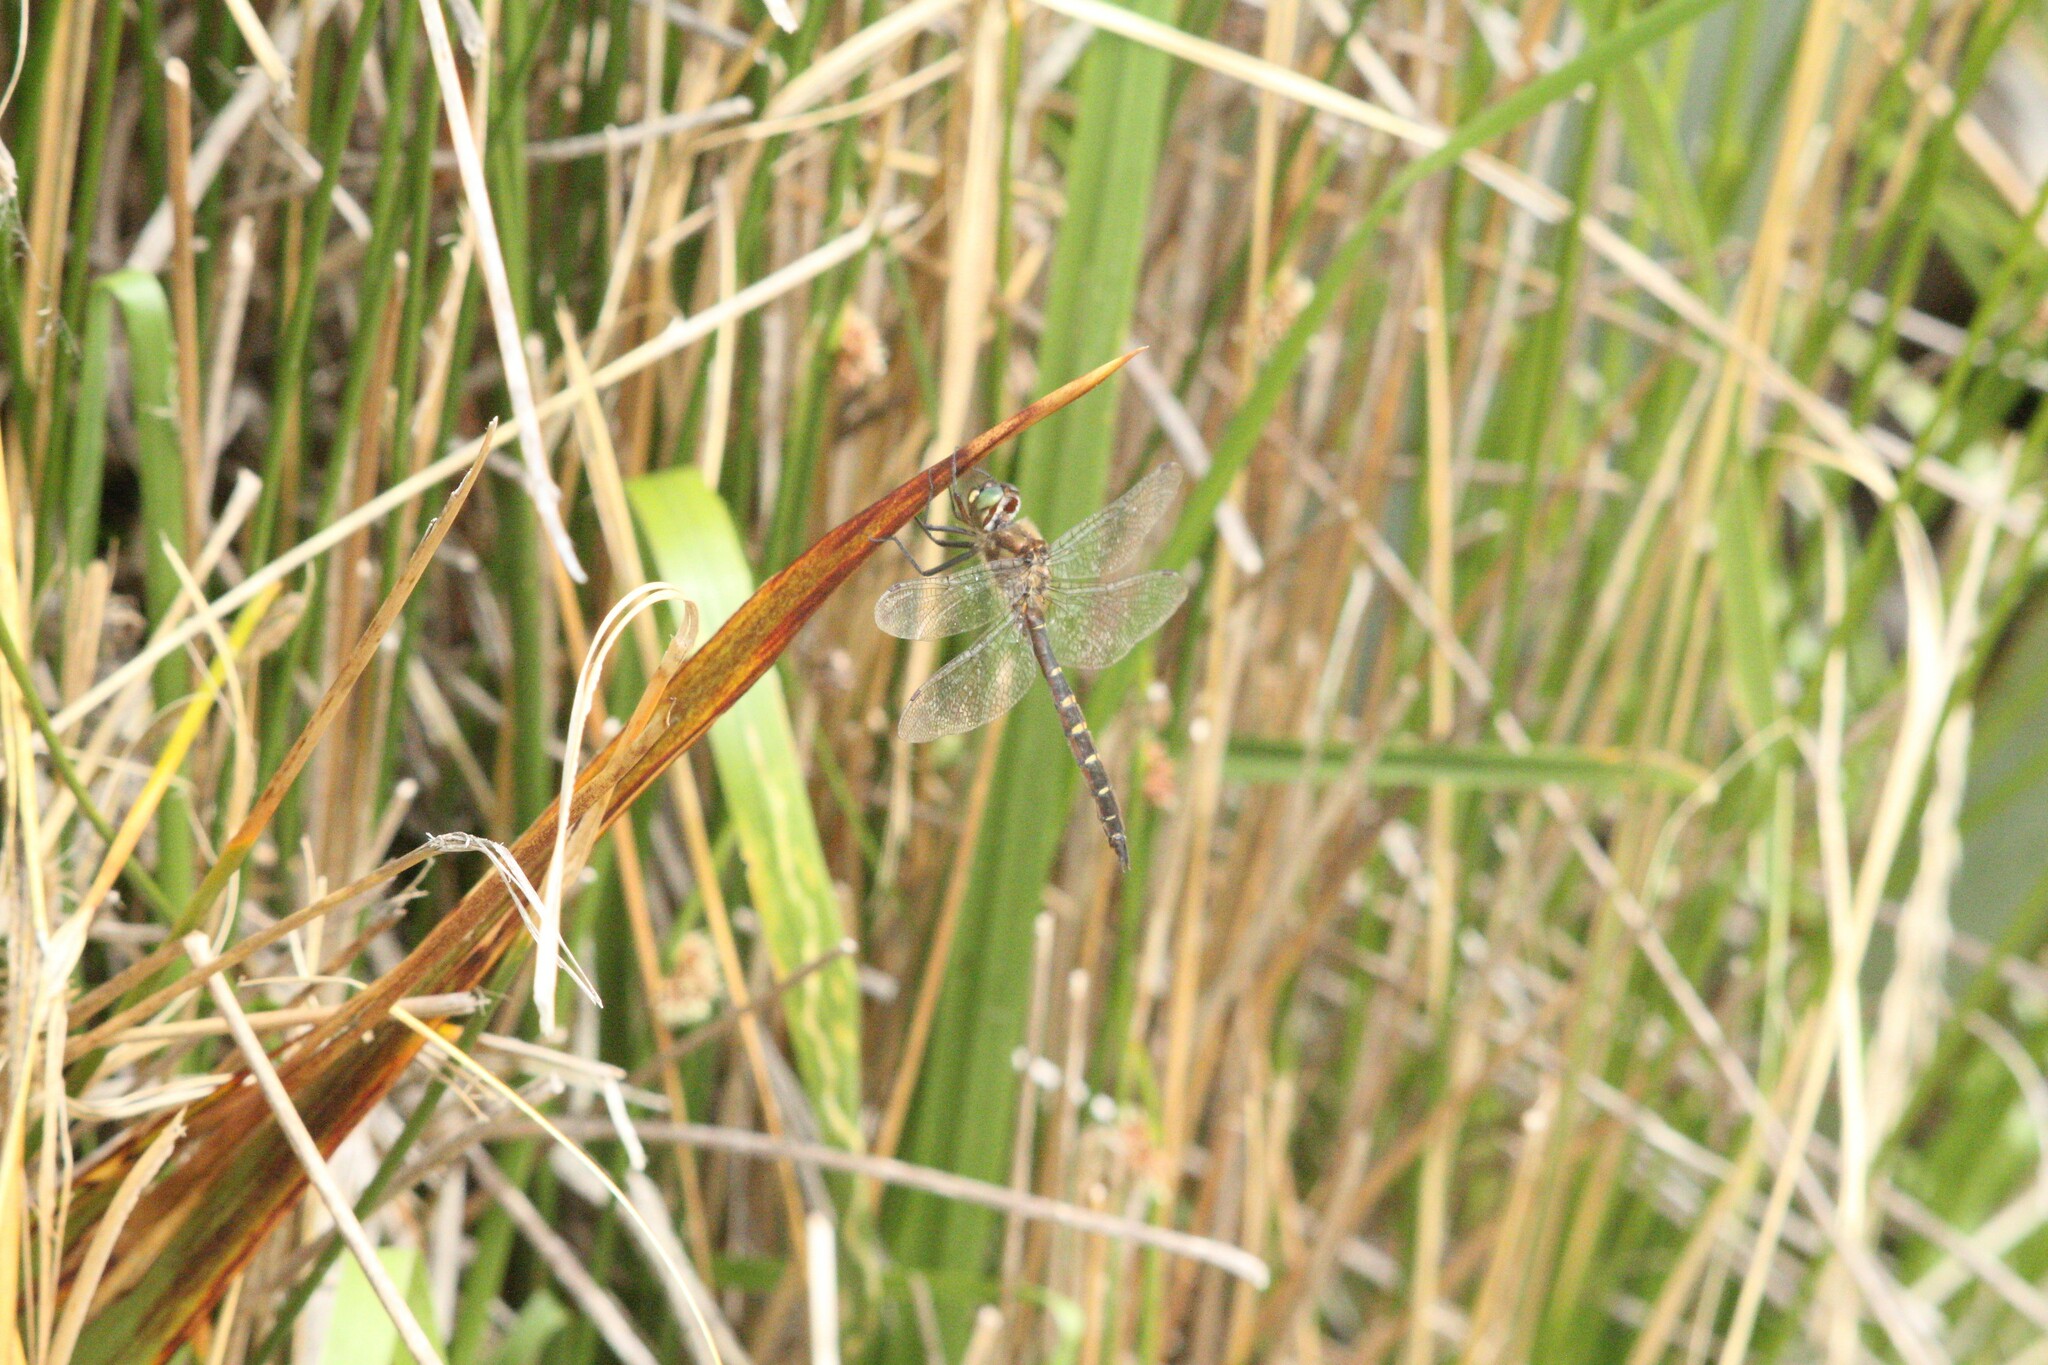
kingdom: Animalia
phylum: Arthropoda
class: Insecta
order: Odonata
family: Corduliidae
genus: Procordulia
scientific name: Procordulia smithii
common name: Ranger dragonfly
